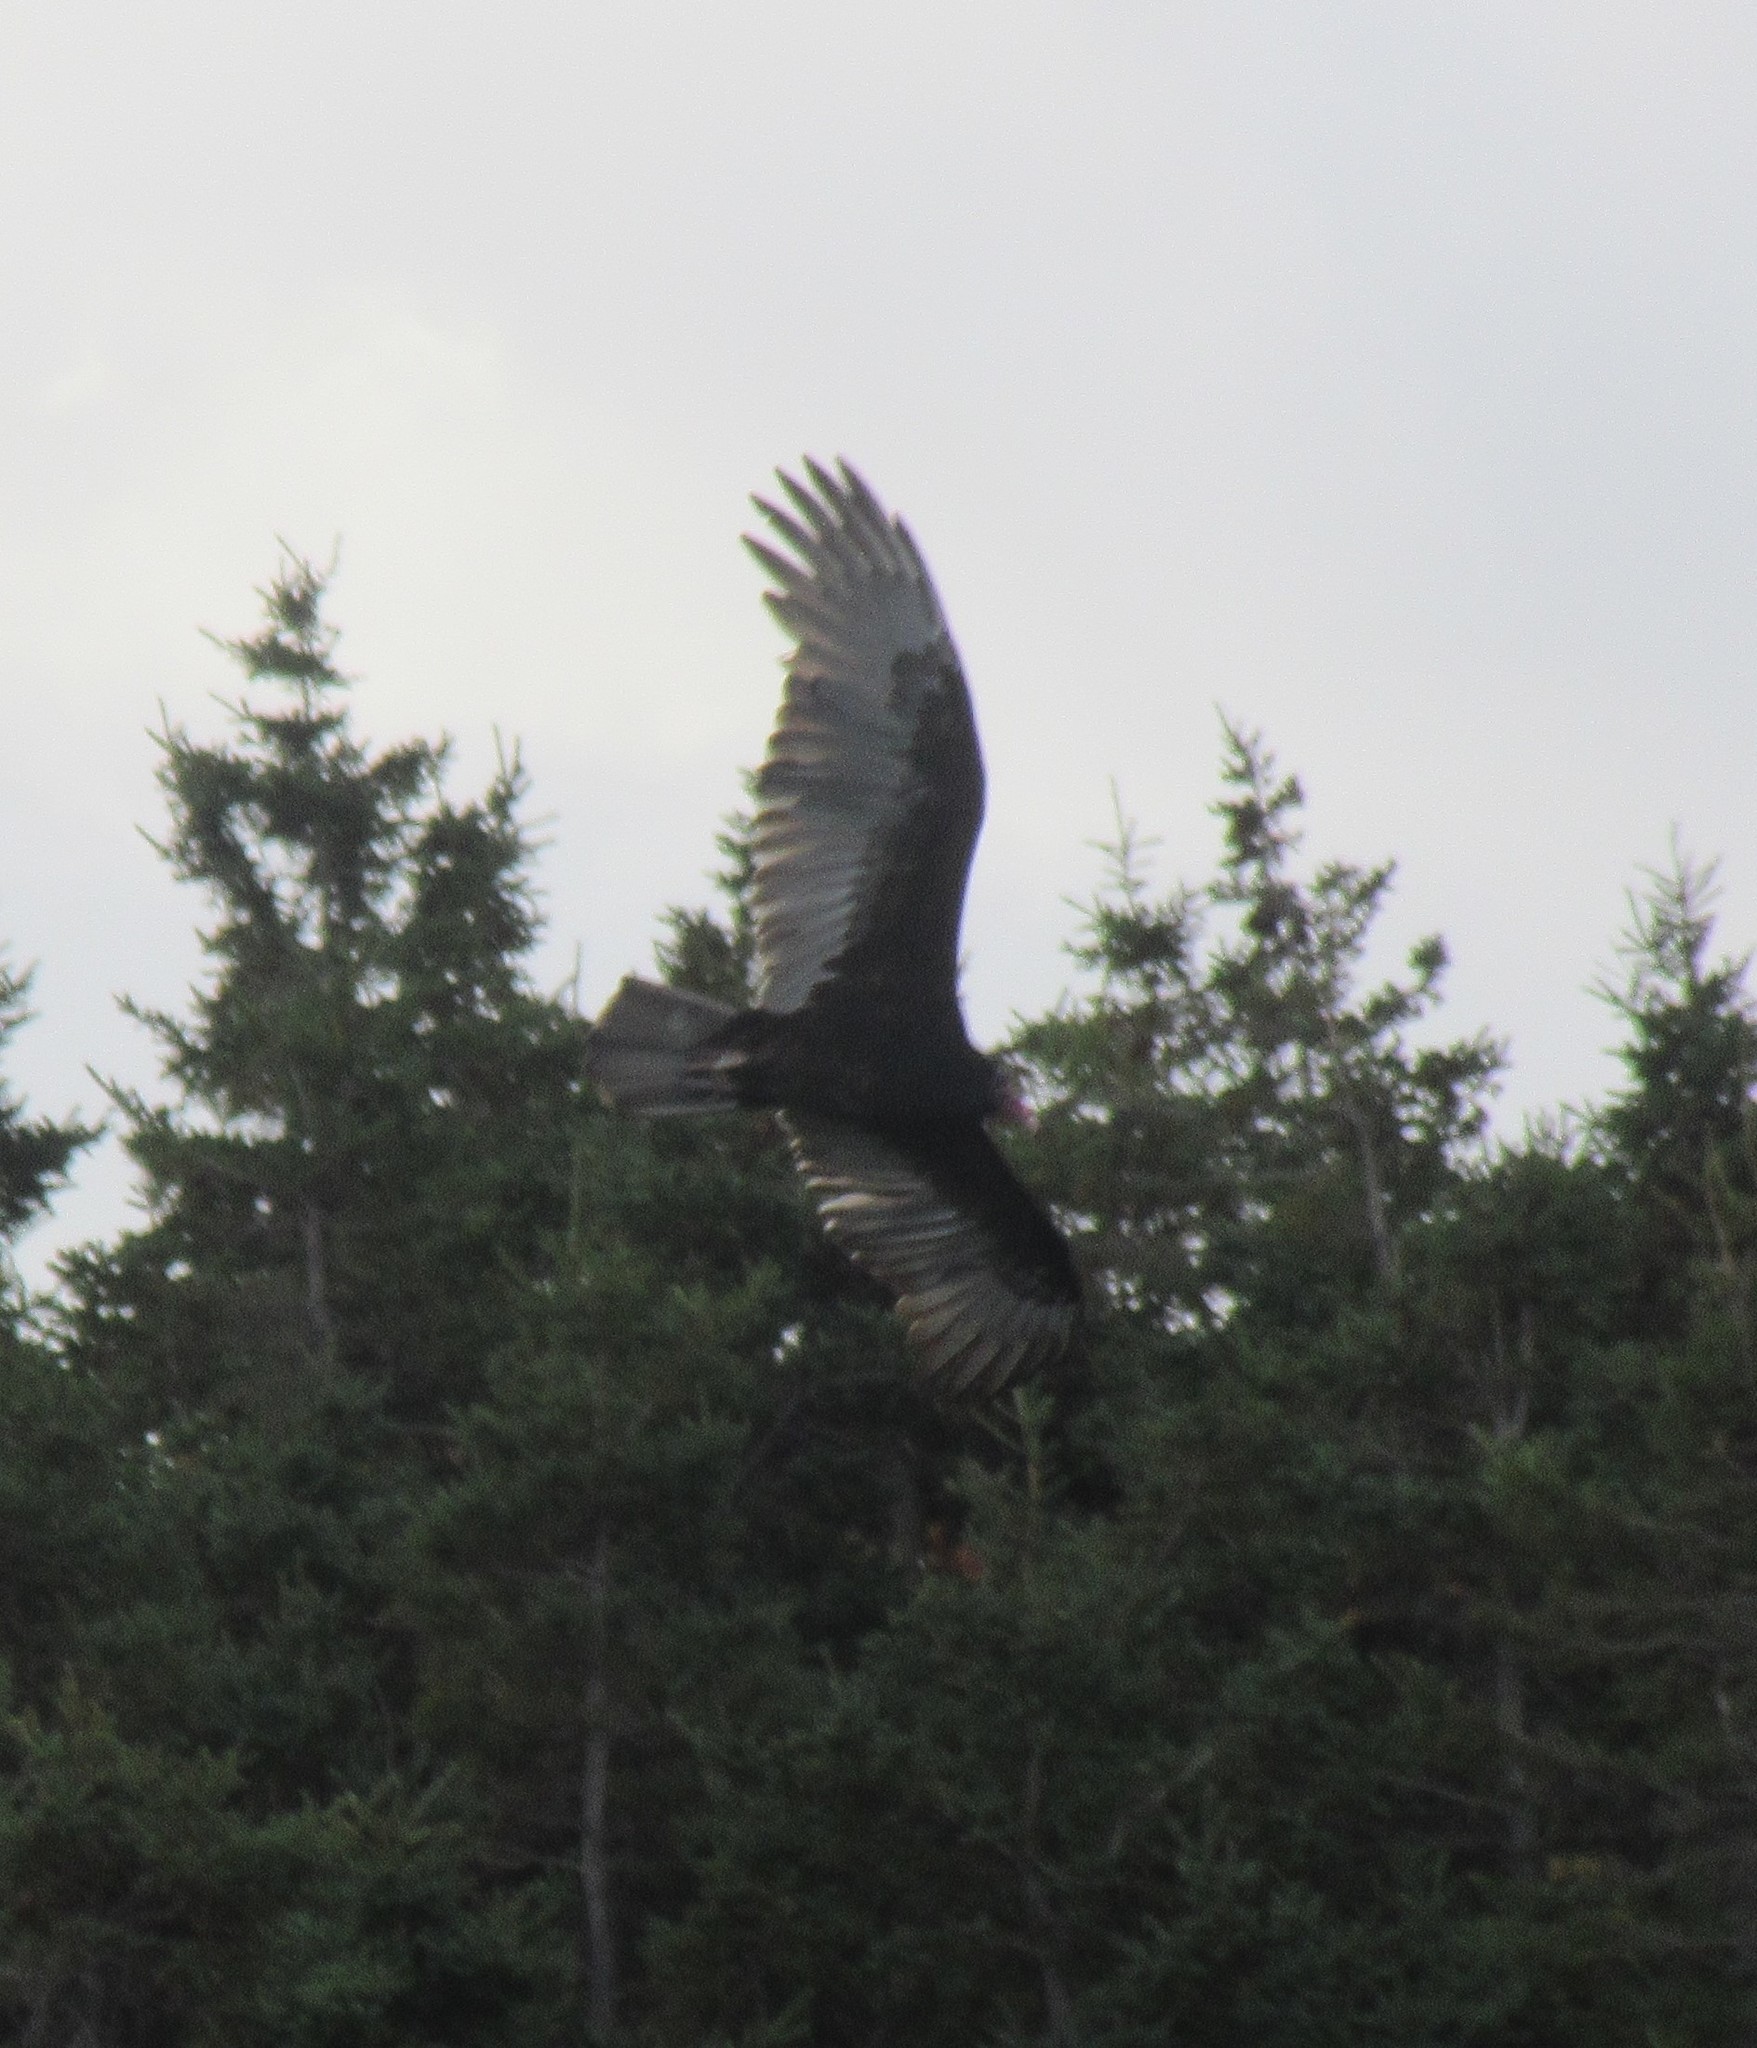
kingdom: Animalia
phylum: Chordata
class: Aves
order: Accipitriformes
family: Cathartidae
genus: Cathartes
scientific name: Cathartes aura
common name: Turkey vulture
